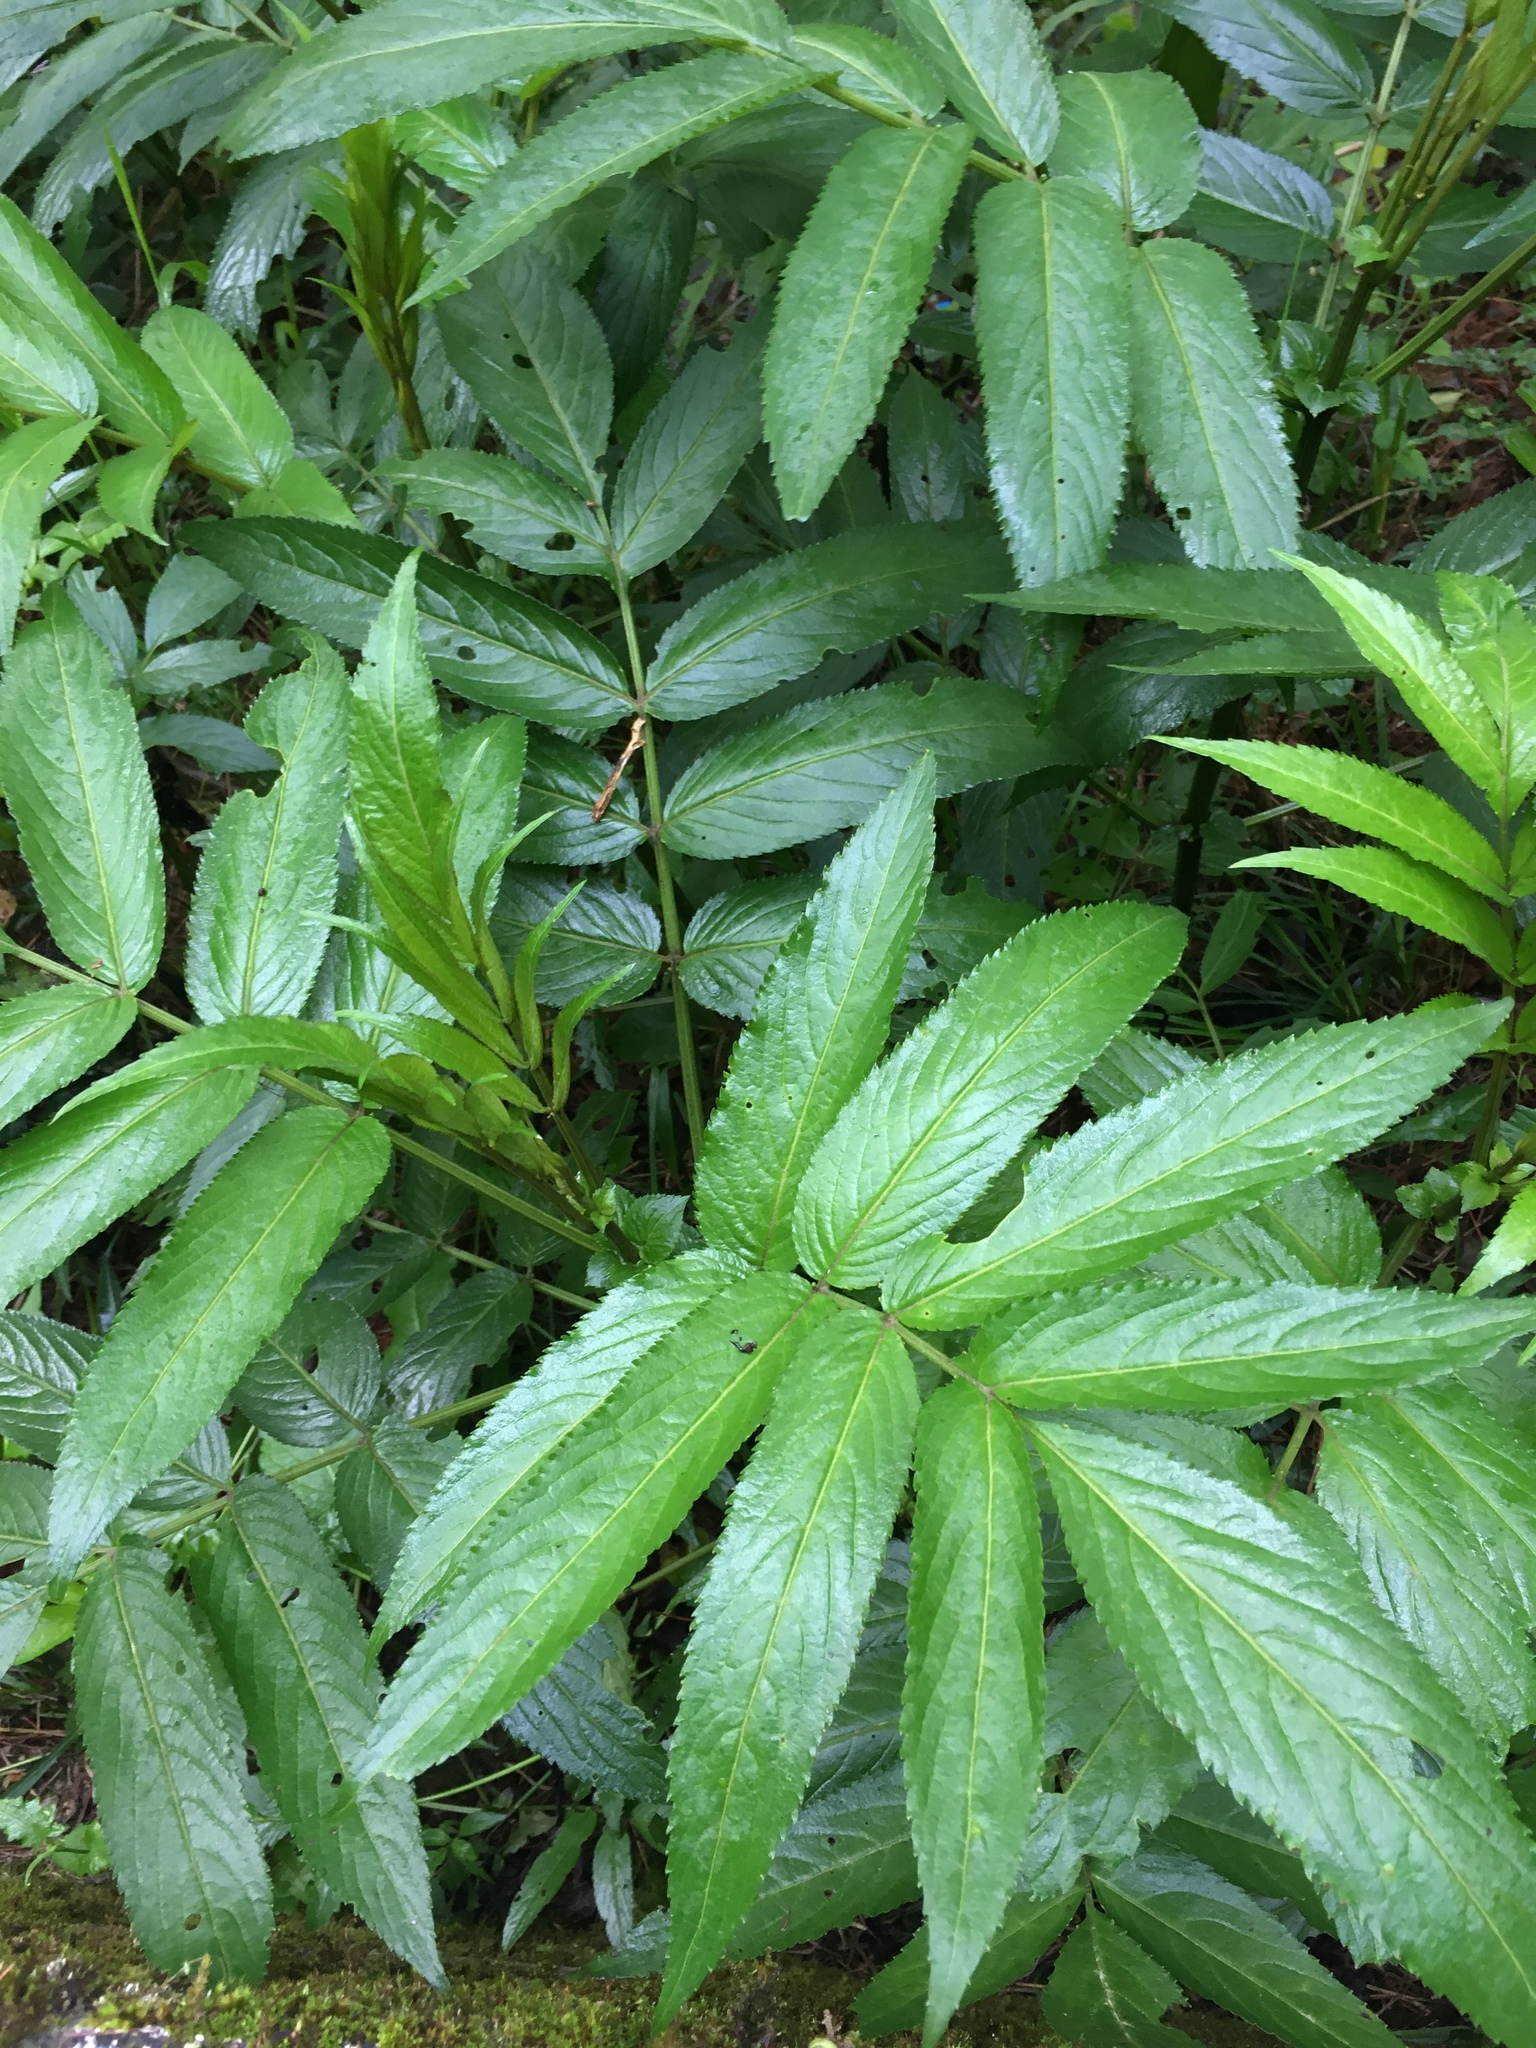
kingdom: Plantae
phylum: Tracheophyta
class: Magnoliopsida
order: Dipsacales
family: Viburnaceae
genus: Sambucus
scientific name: Sambucus javanica
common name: Chinese elder
